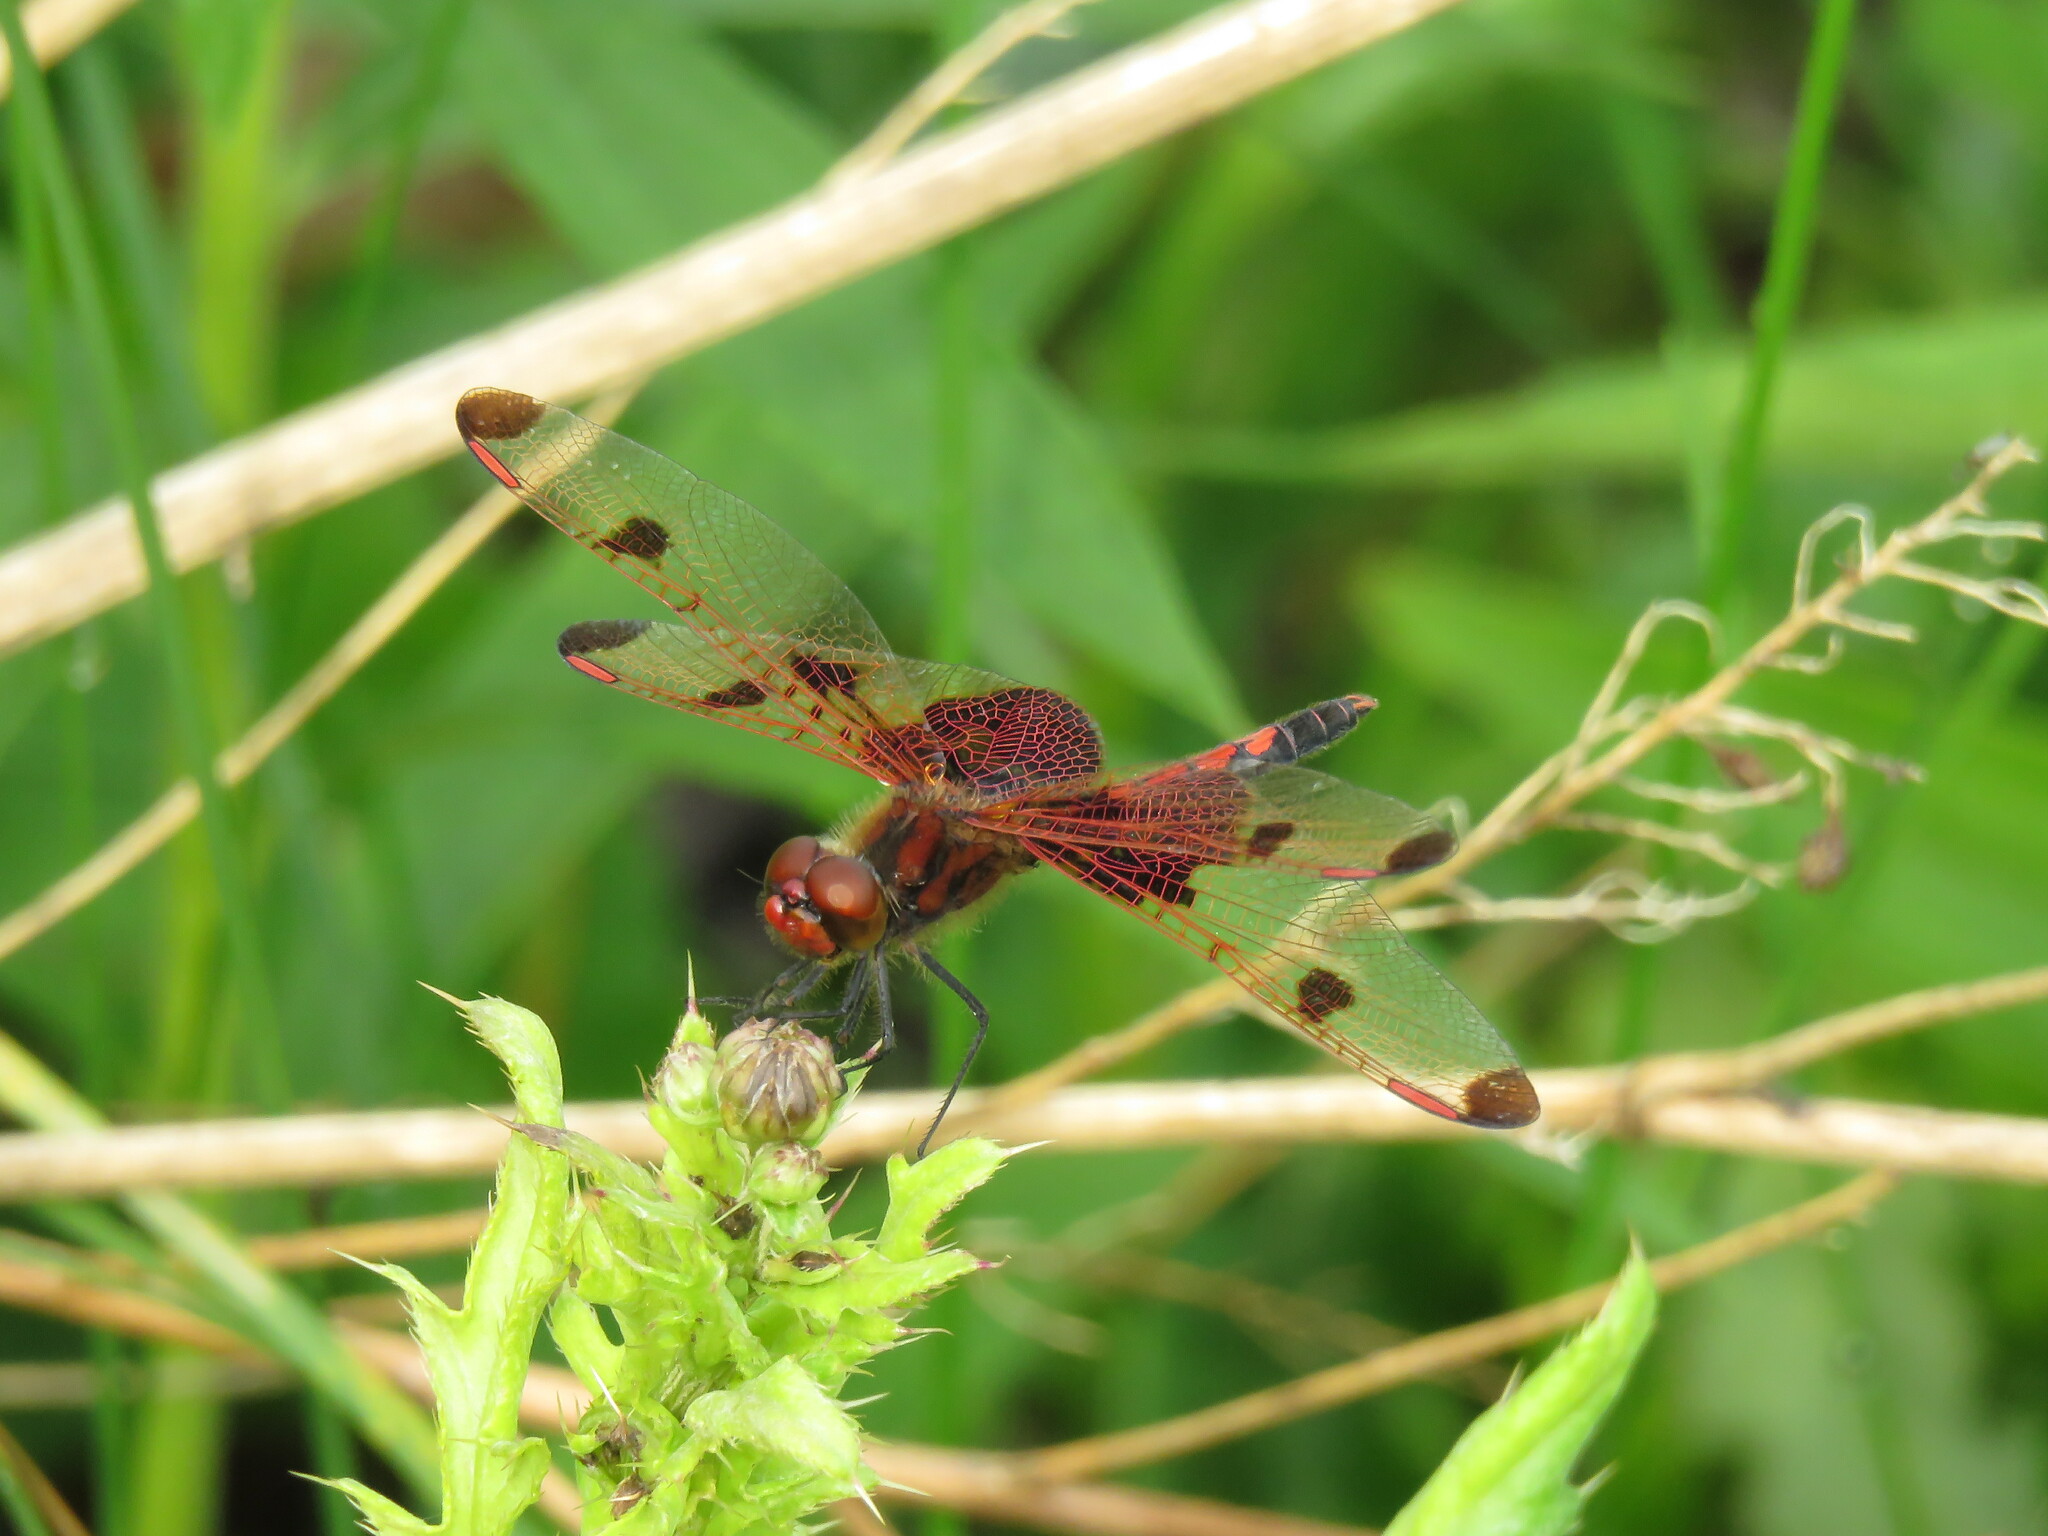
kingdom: Animalia
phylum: Arthropoda
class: Insecta
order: Odonata
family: Libellulidae
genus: Celithemis
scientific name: Celithemis elisa
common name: Calico pennant
